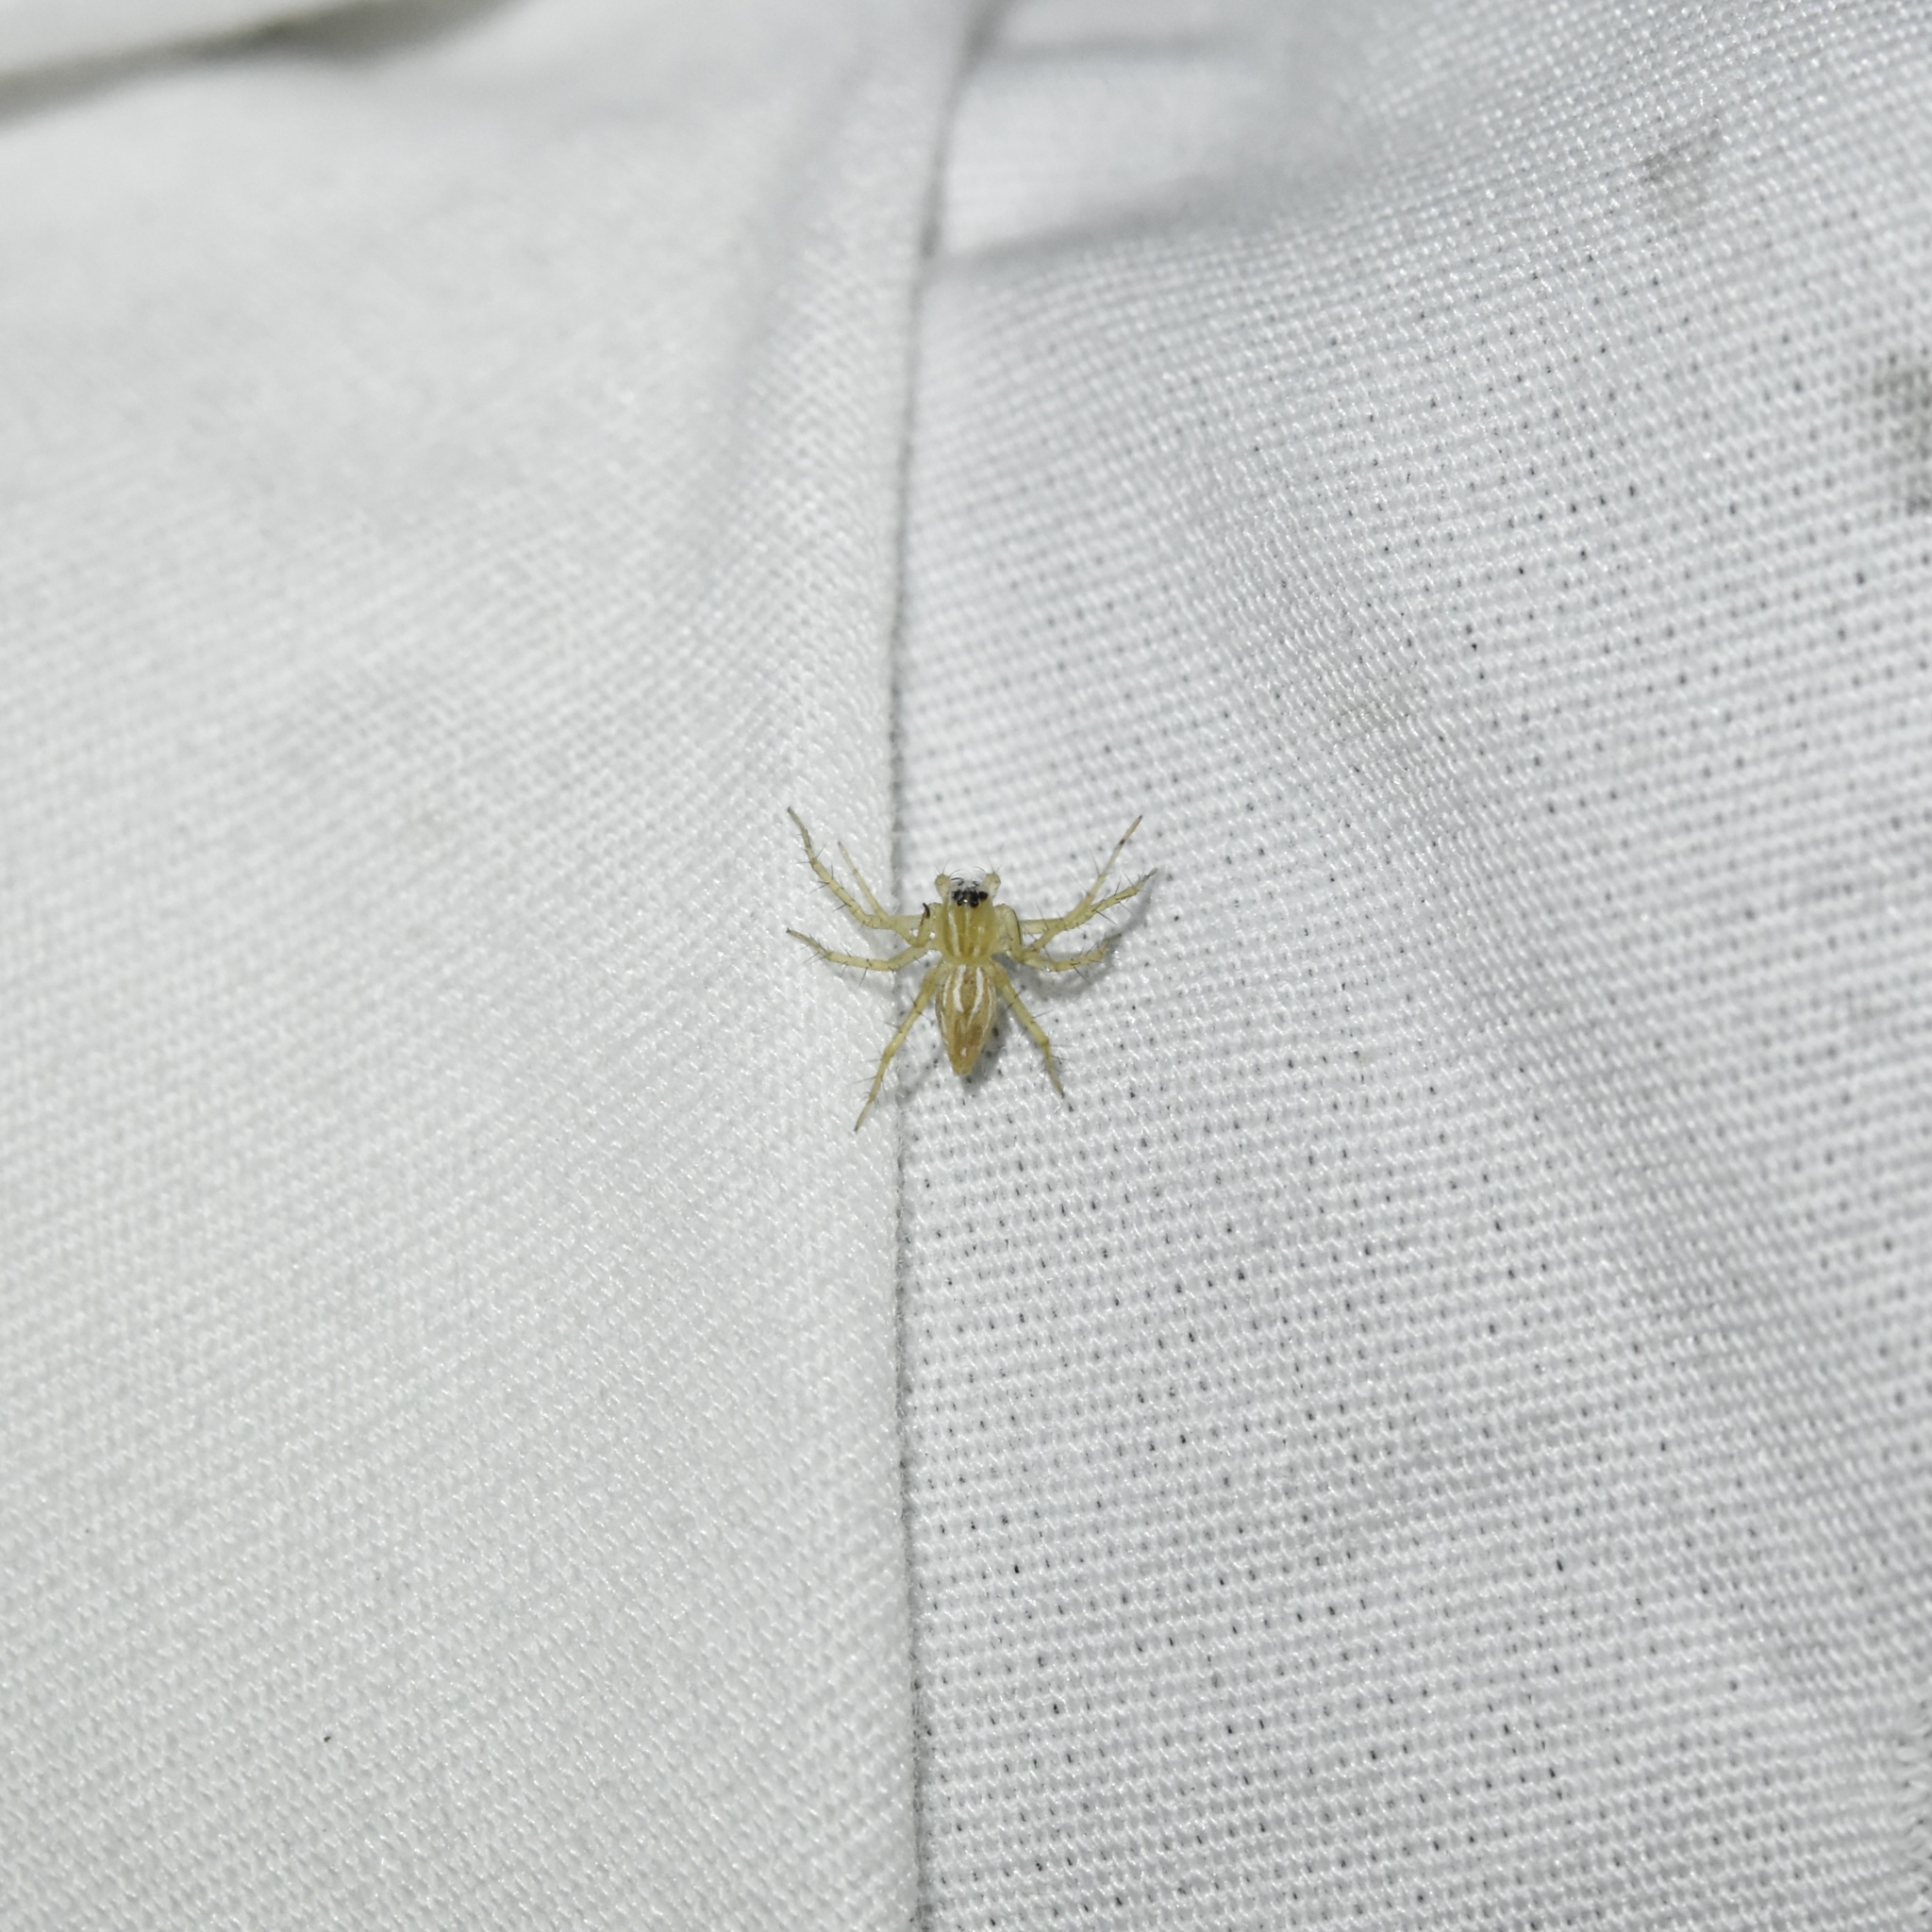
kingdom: Animalia
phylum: Arthropoda
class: Arachnida
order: Araneae
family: Oxyopidae
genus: Oxyopes
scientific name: Oxyopes salticus
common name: Lynx spiders
